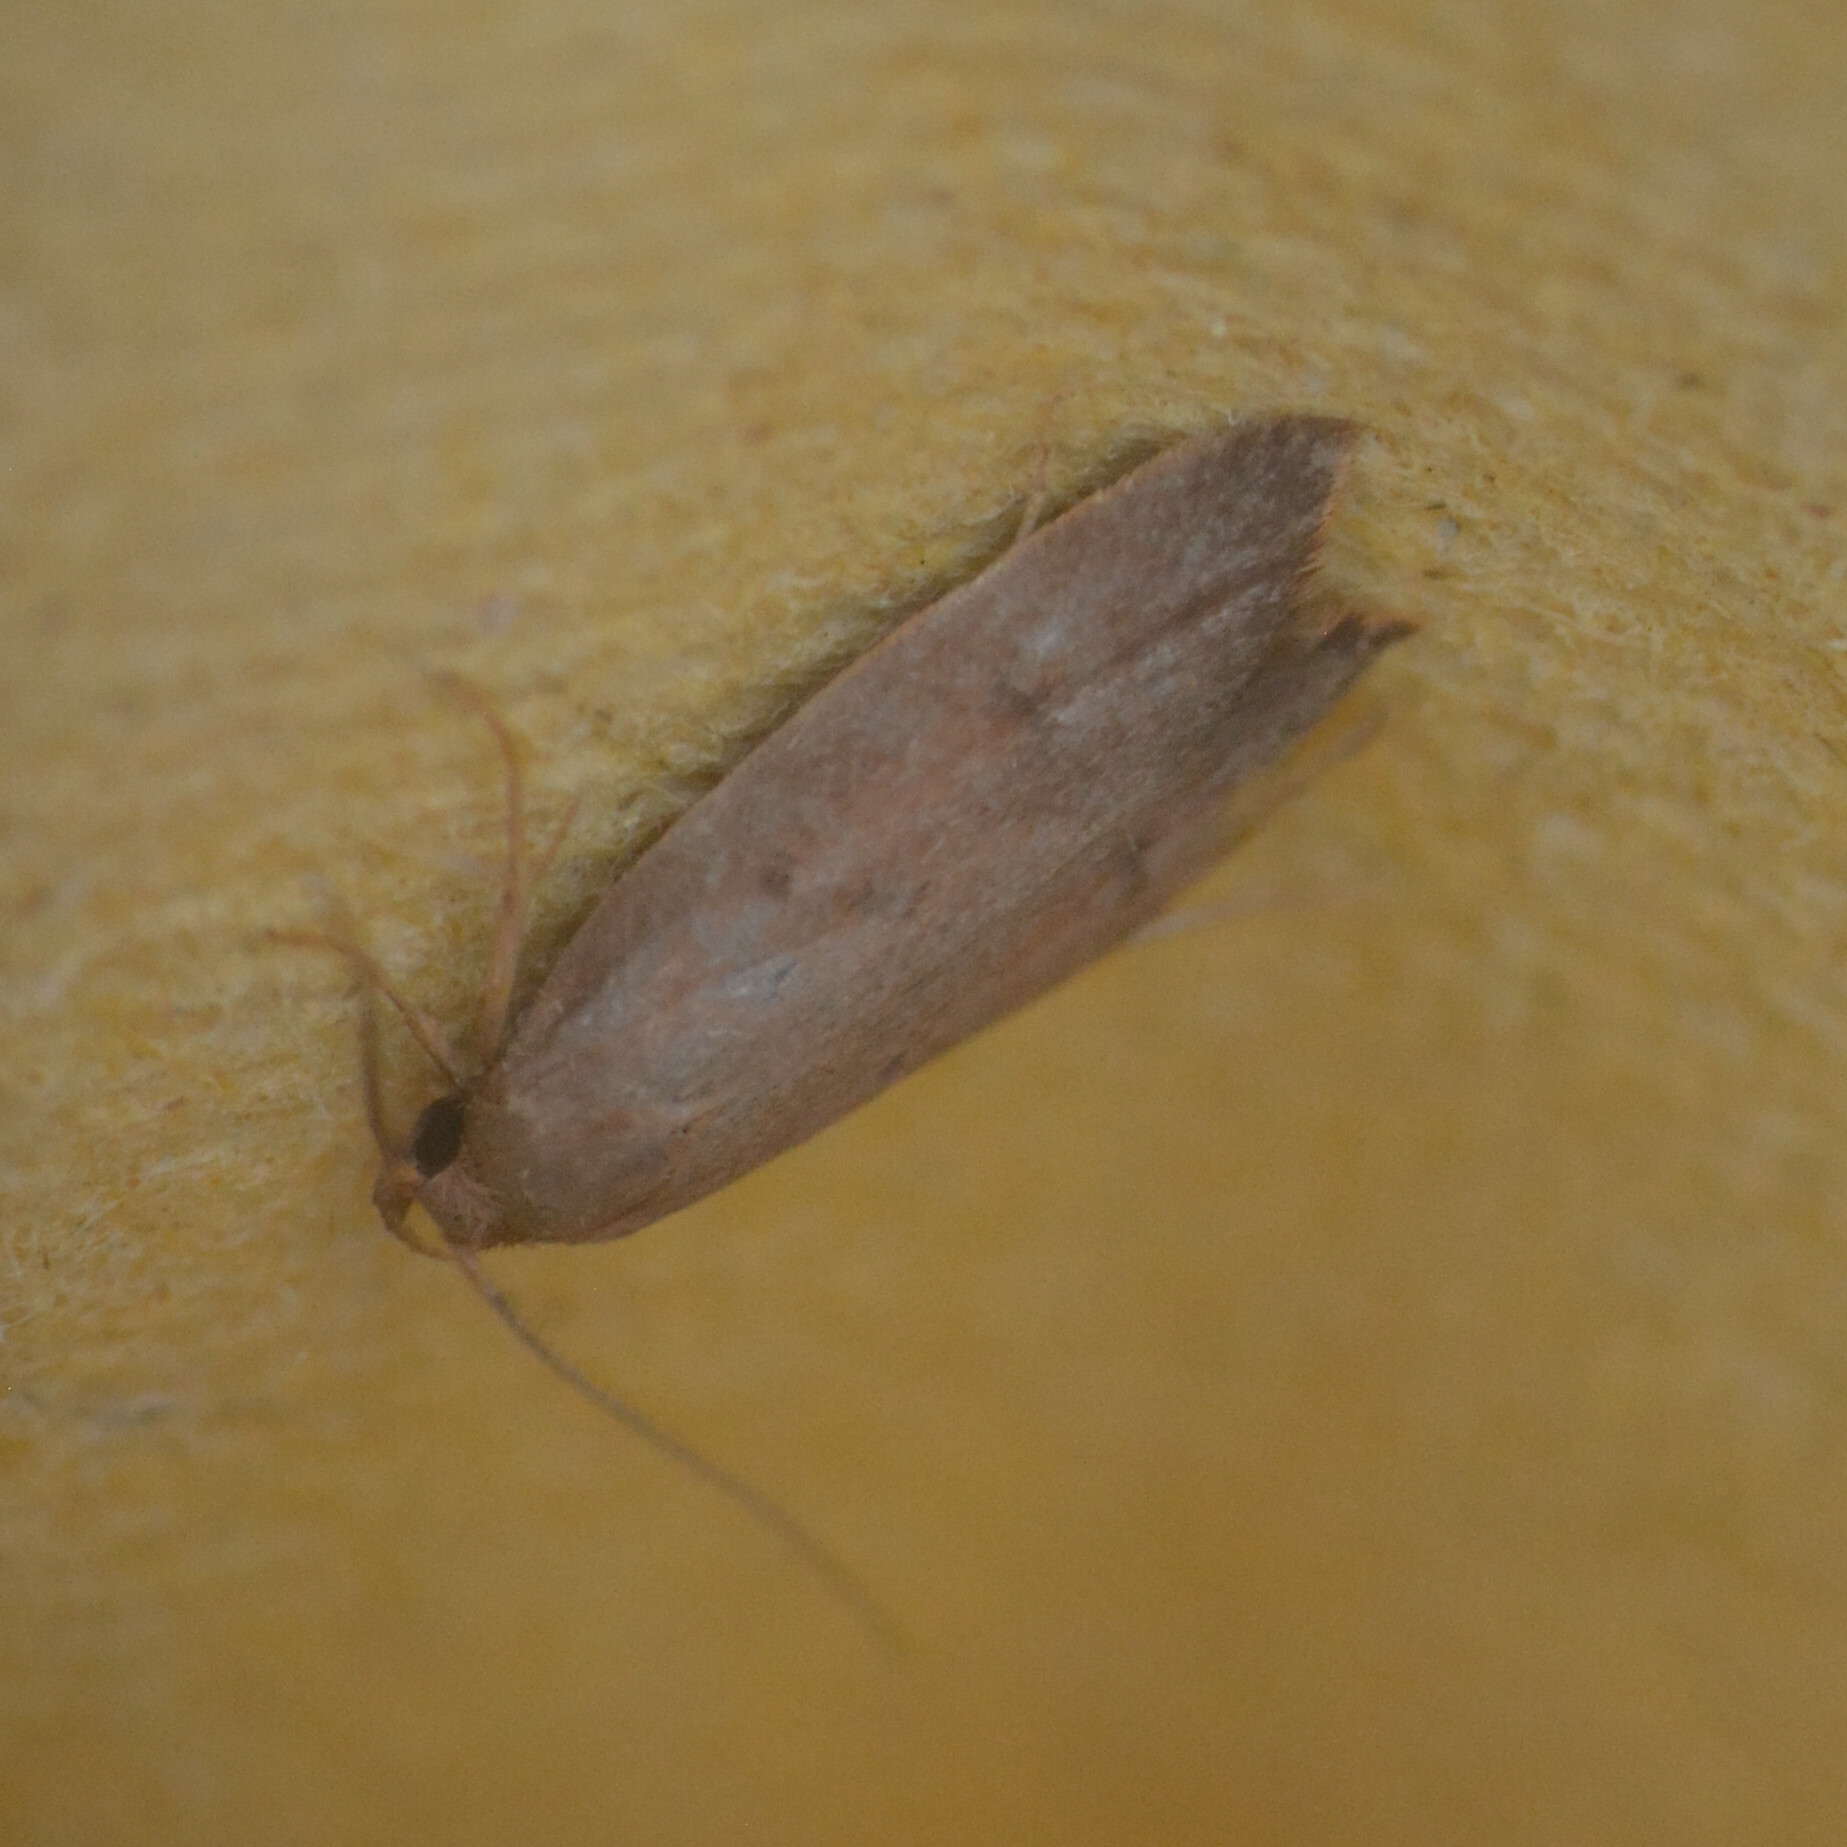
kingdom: Animalia
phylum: Arthropoda
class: Insecta
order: Lepidoptera
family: Oecophoridae
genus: Tachystola
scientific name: Tachystola acroxantha
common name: Ruddy streak
